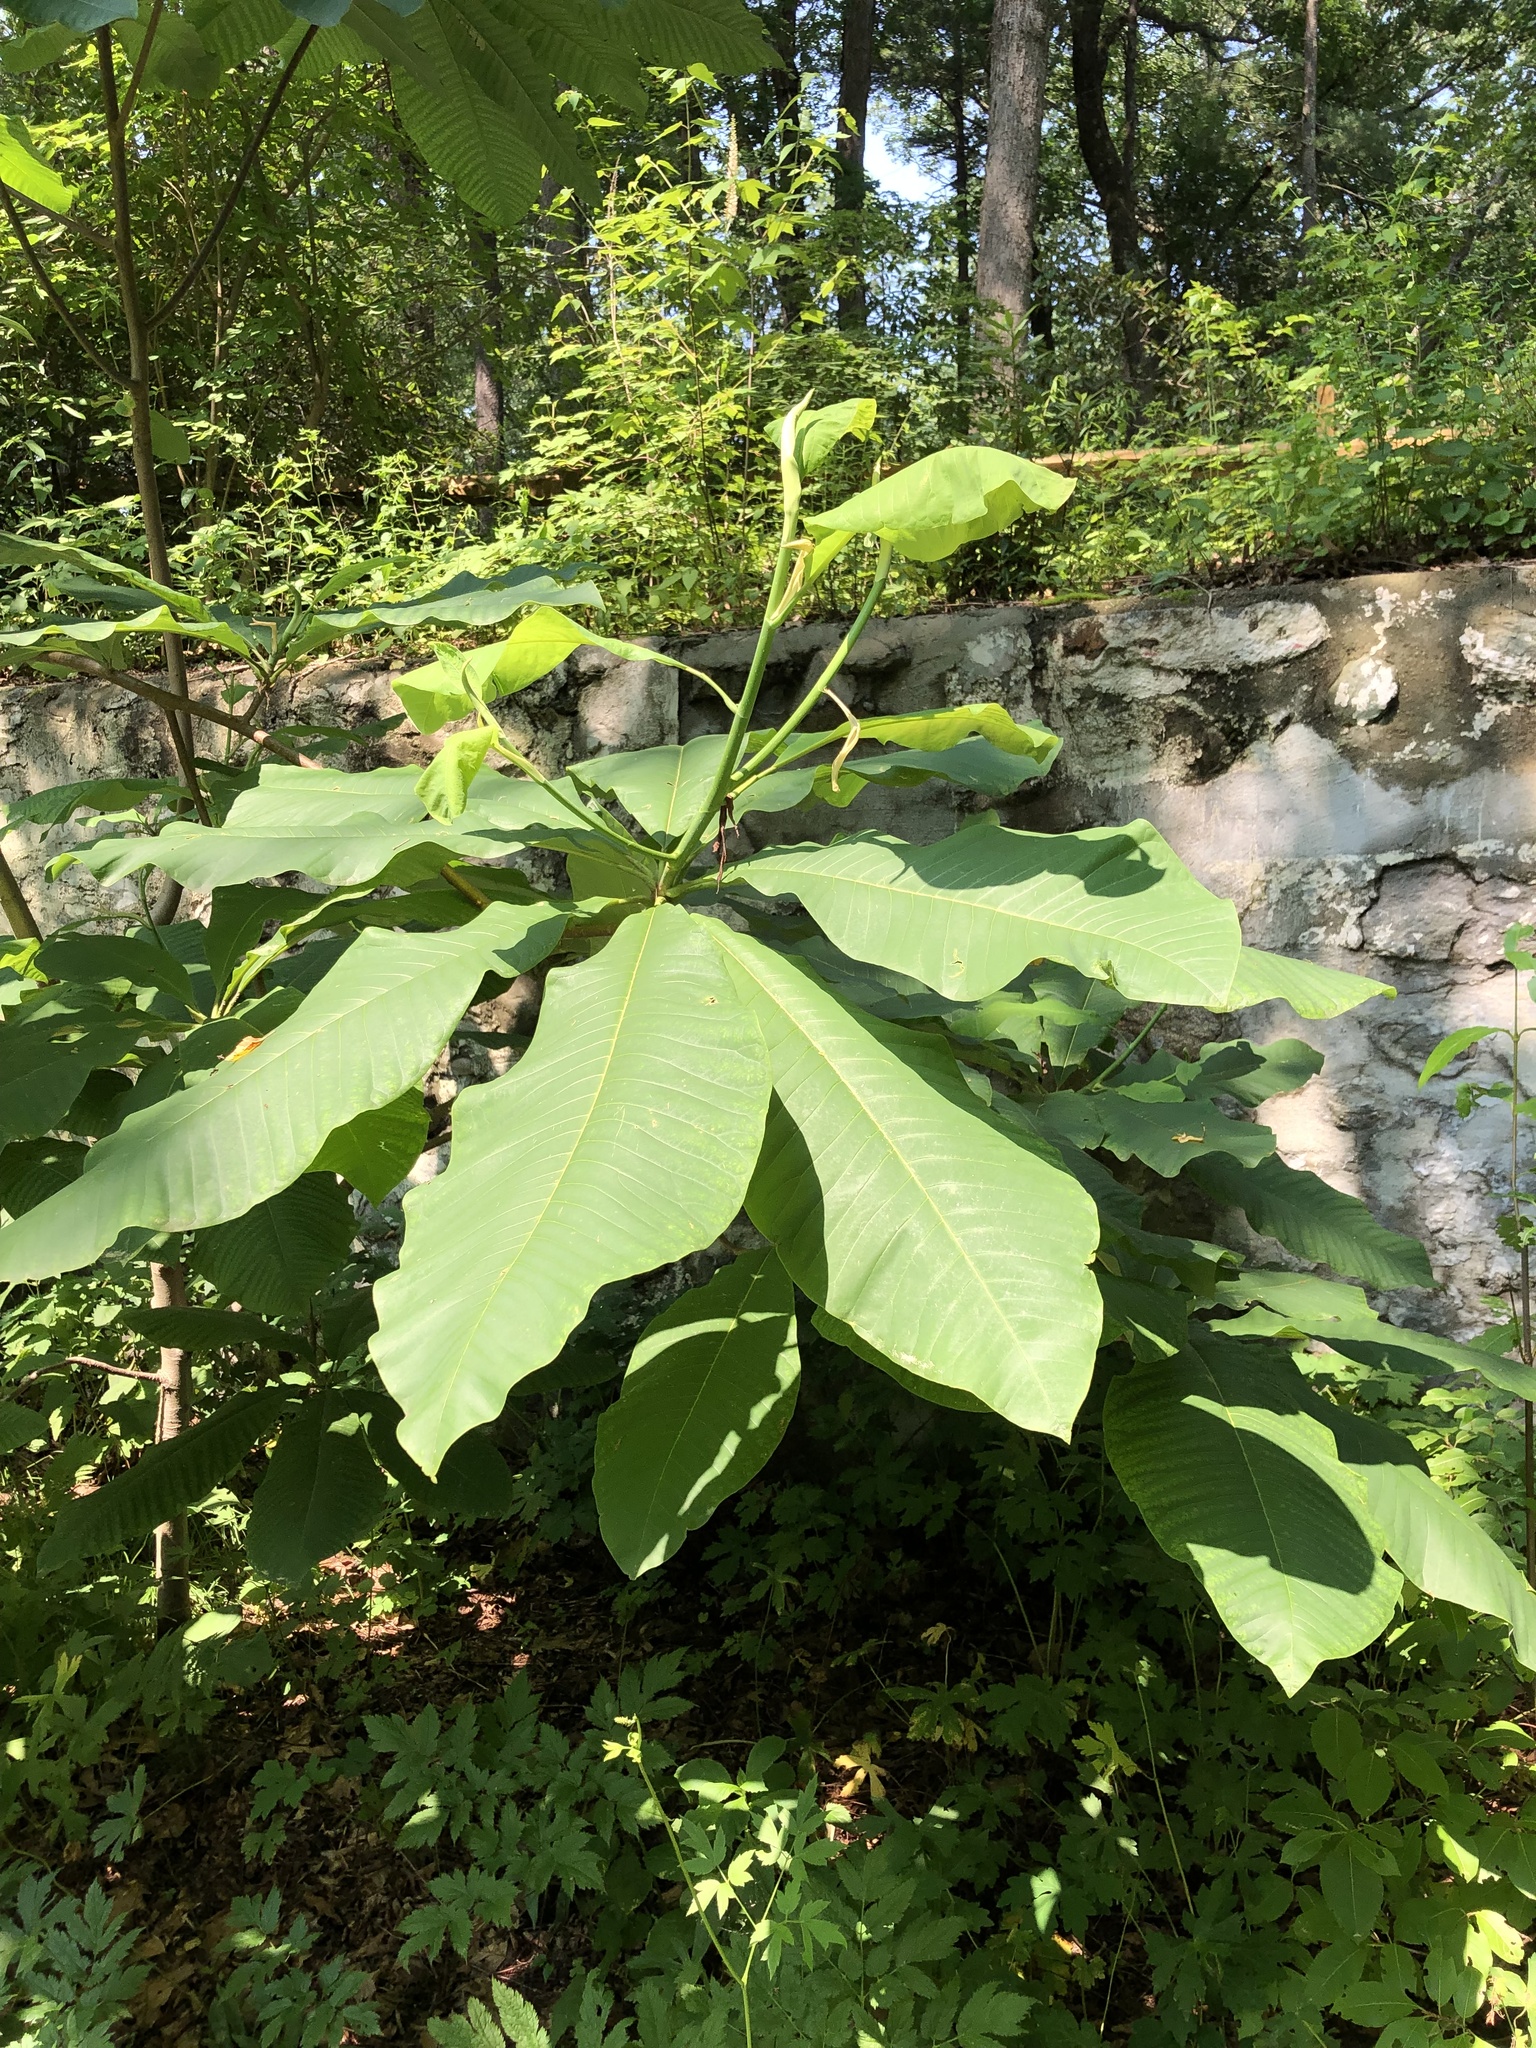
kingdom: Plantae
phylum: Tracheophyta
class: Magnoliopsida
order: Magnoliales
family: Magnoliaceae
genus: Magnolia
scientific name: Magnolia tripetala
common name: Umbrella magnolia
